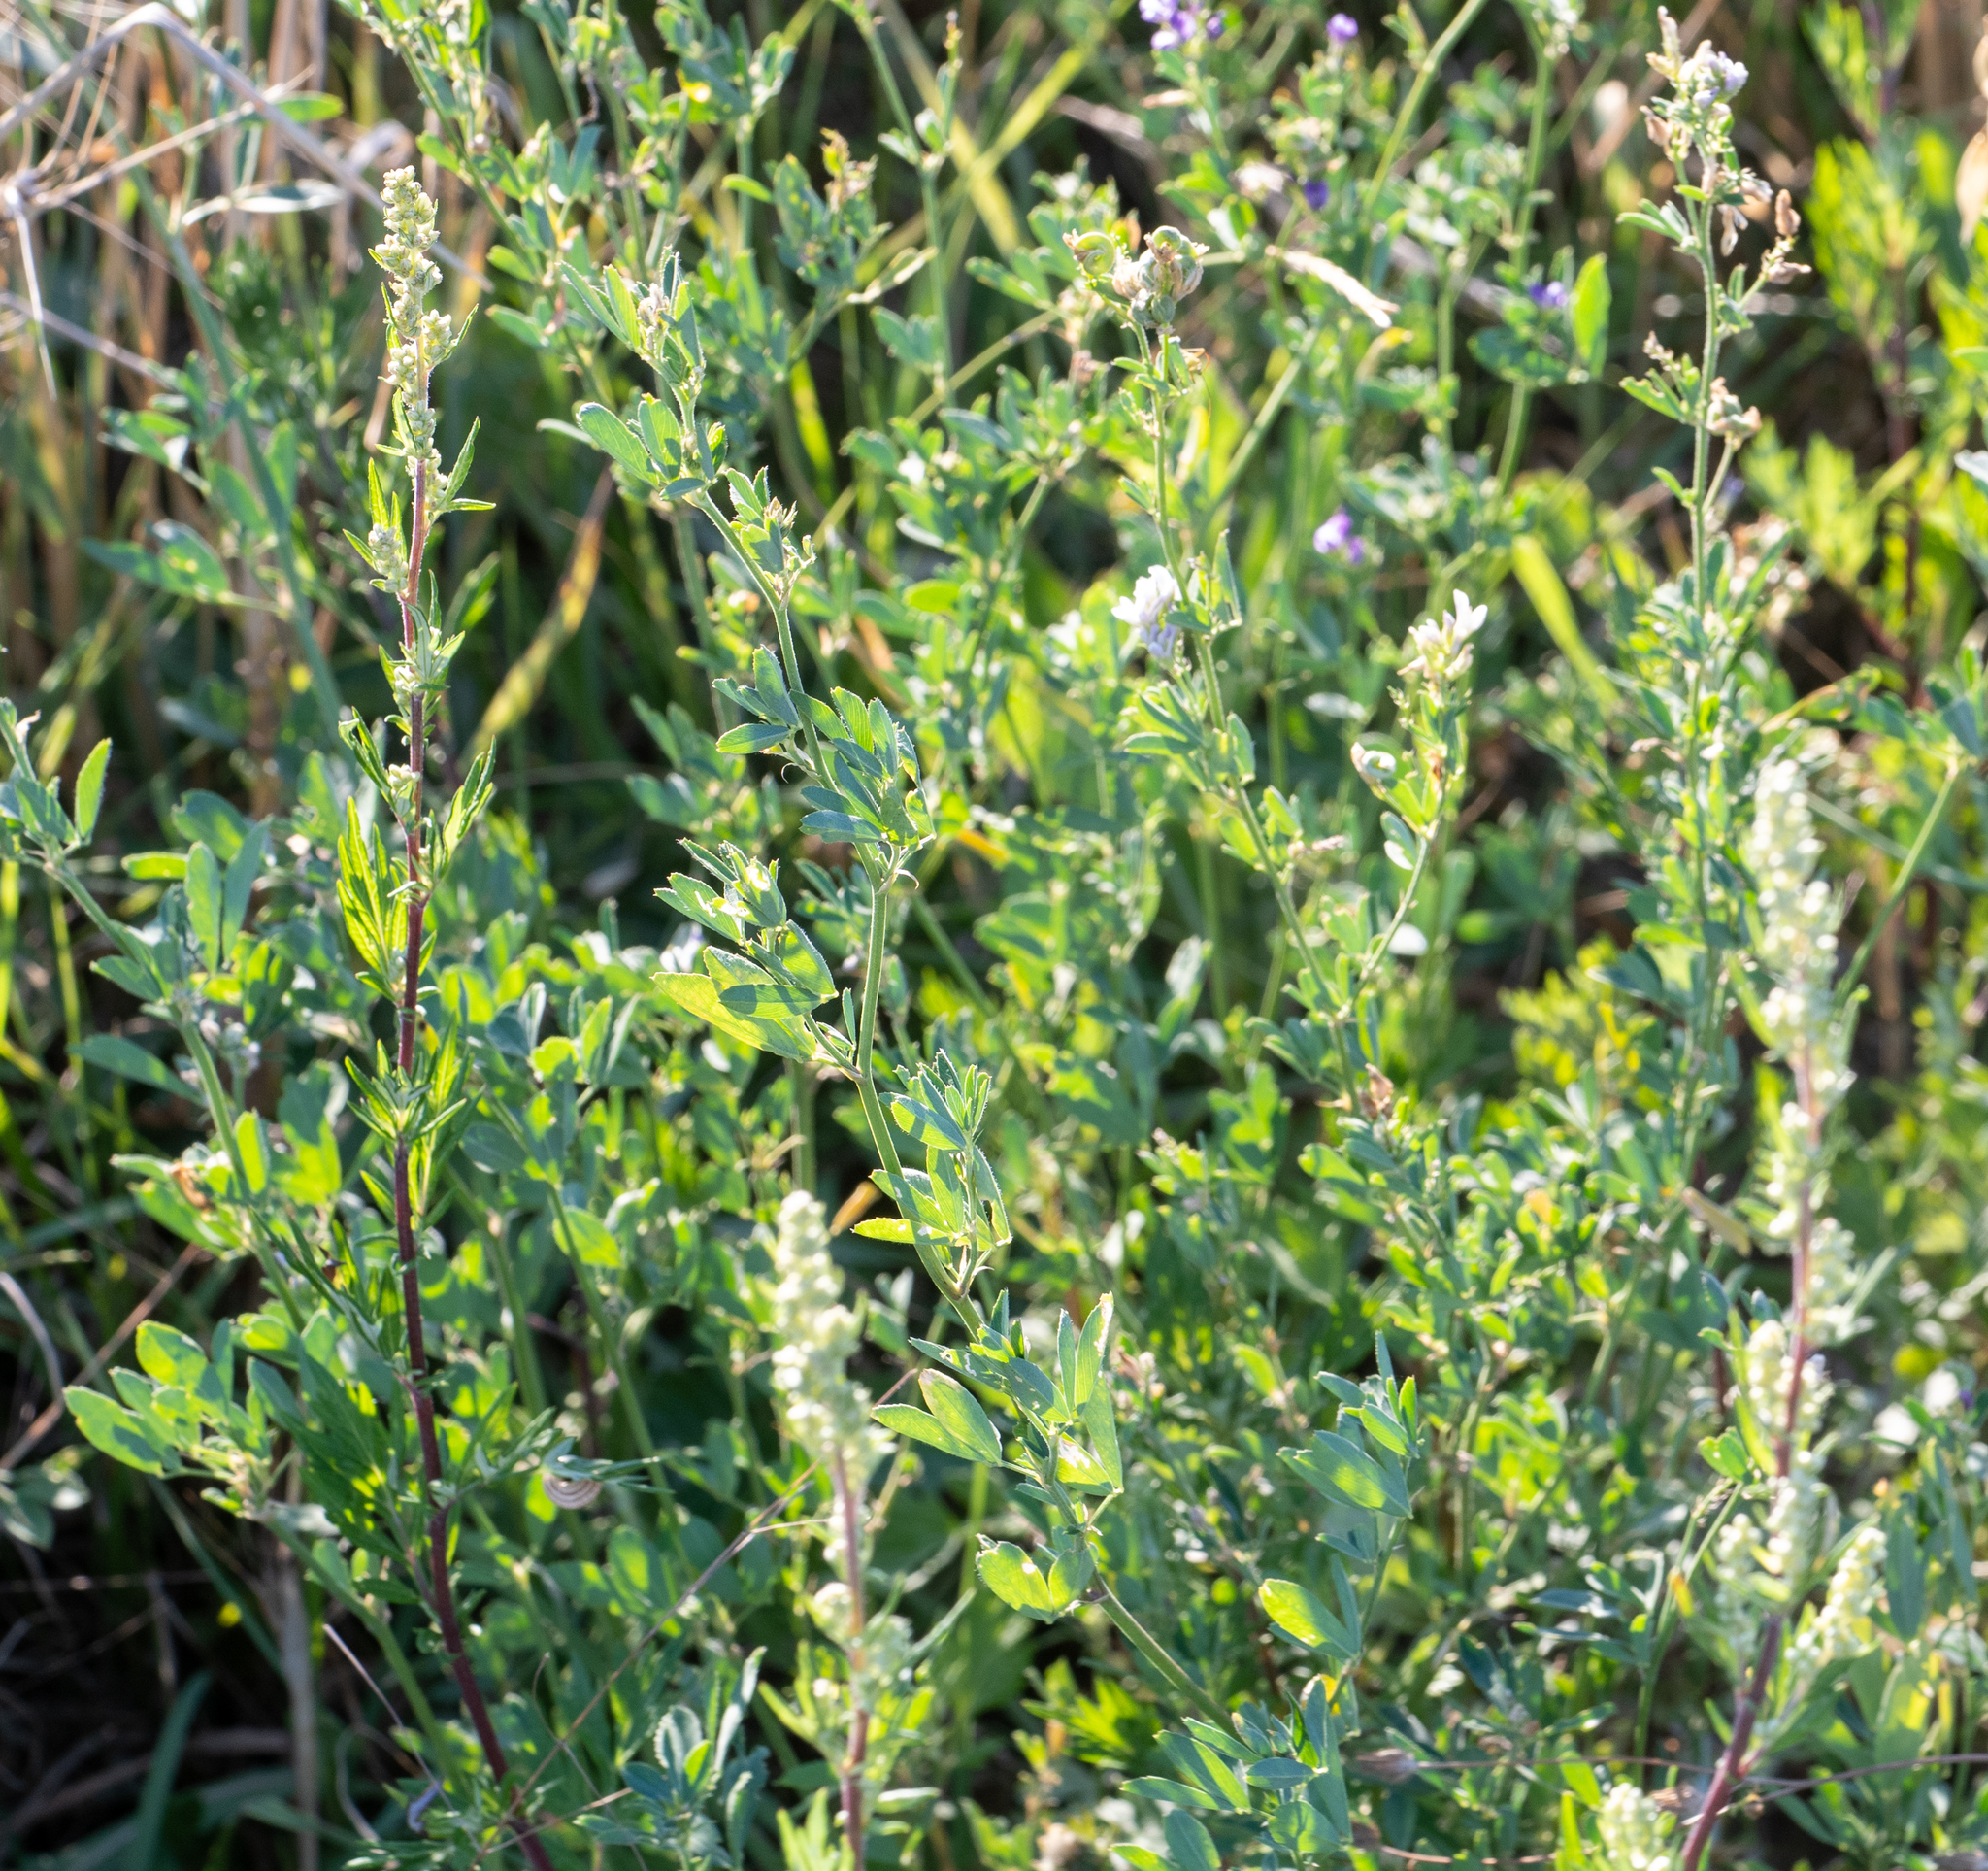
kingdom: Plantae
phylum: Tracheophyta
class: Magnoliopsida
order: Fabales
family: Fabaceae
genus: Medicago
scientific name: Medicago sativa
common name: Alfalfa
